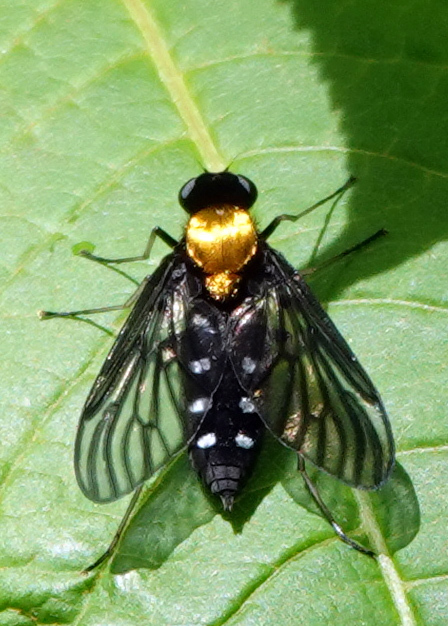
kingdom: Animalia
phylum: Arthropoda
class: Insecta
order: Diptera
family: Rhagionidae
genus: Chrysopilus
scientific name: Chrysopilus thoracicus
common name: Golden-backed snipe fly
